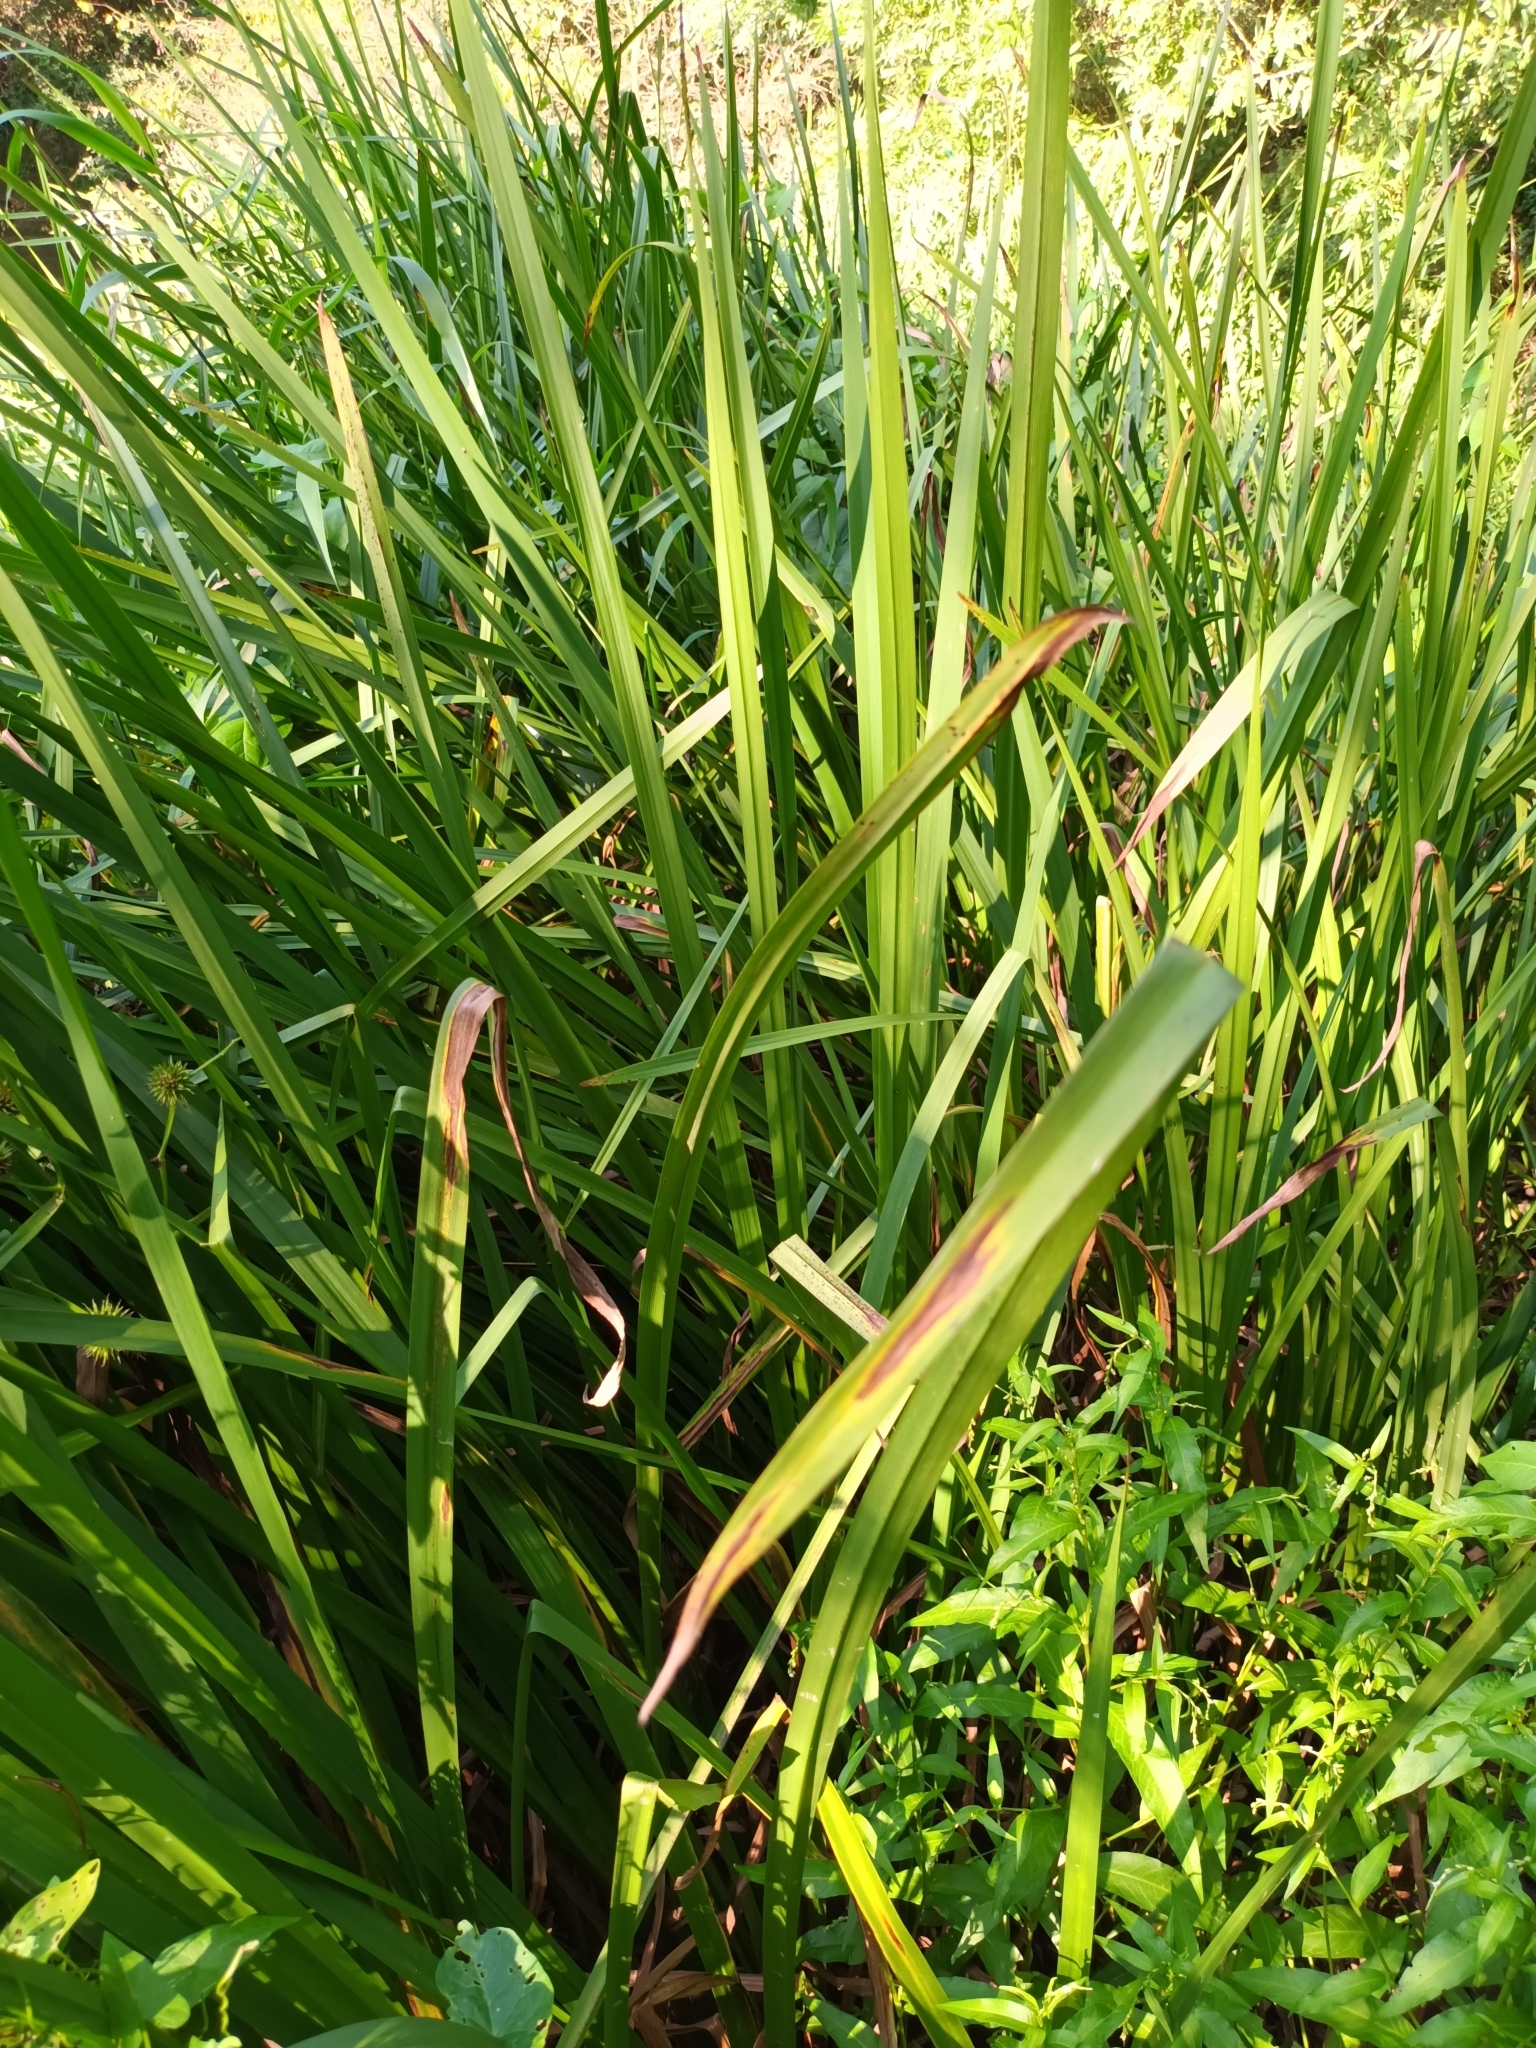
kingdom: Plantae
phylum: Tracheophyta
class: Liliopsida
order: Poales
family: Cyperaceae
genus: Carex
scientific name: Carex pendula
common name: Pendulous sedge
